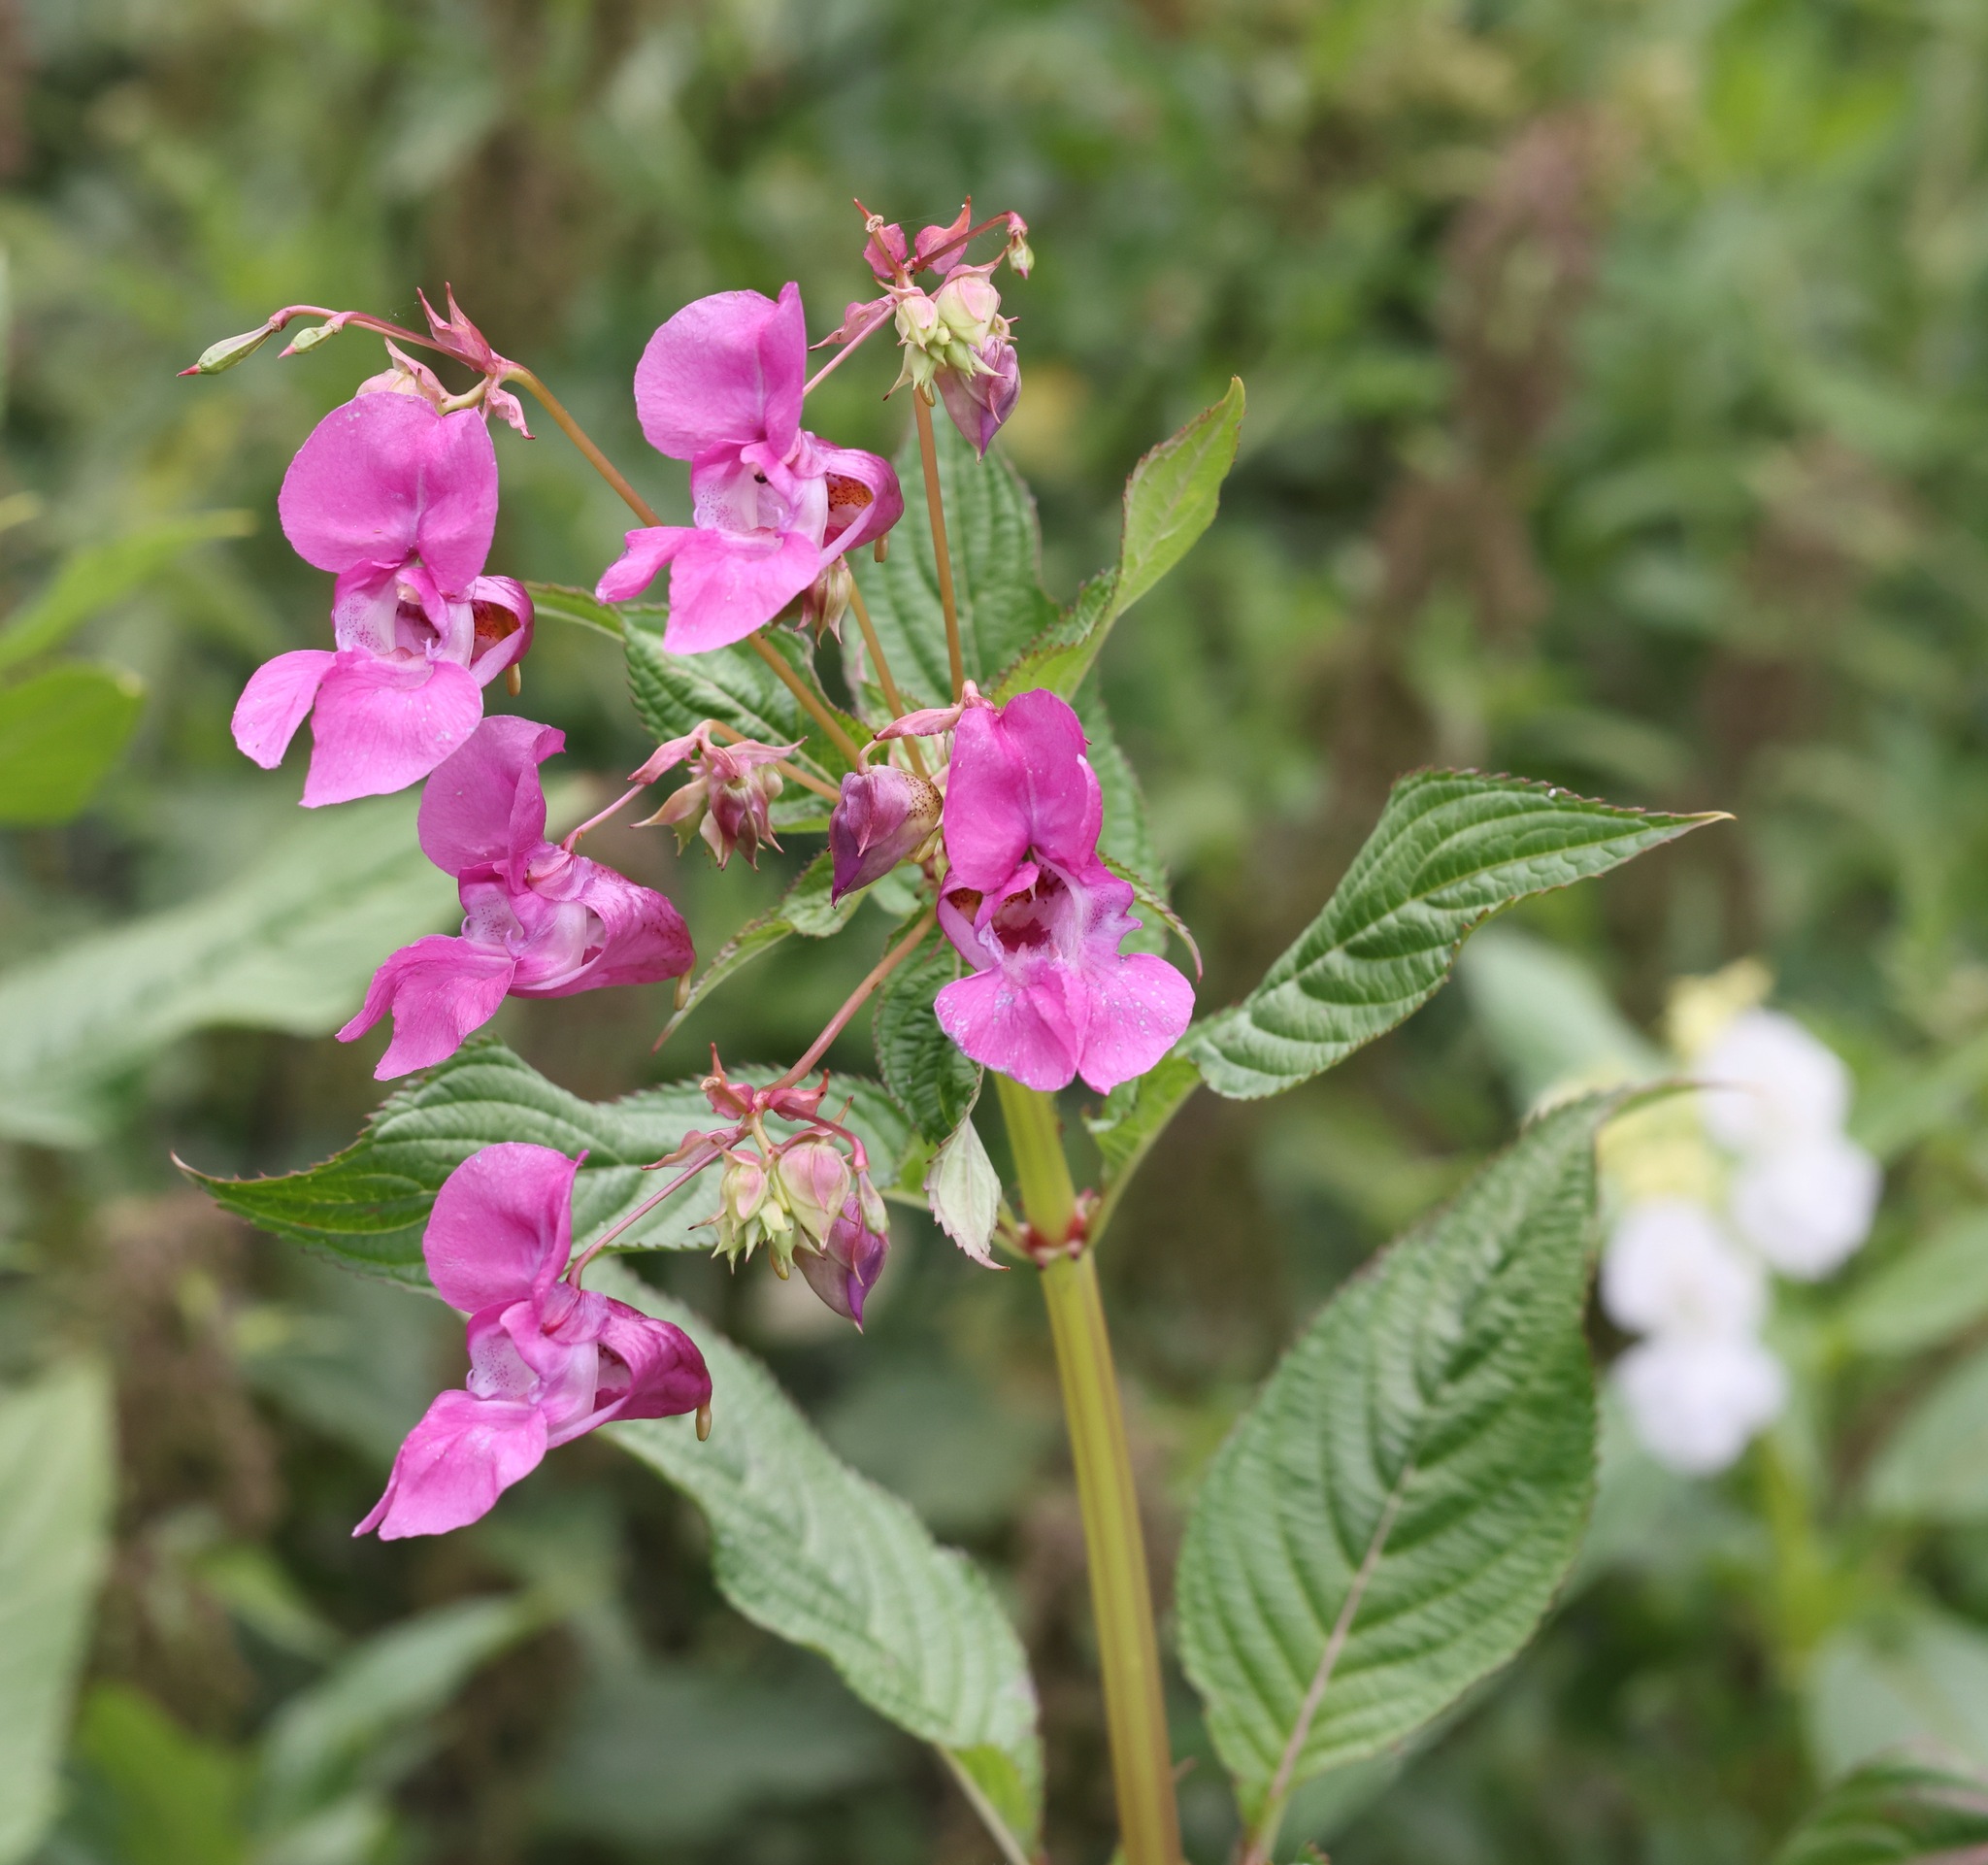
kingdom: Plantae
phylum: Tracheophyta
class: Magnoliopsida
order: Ericales
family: Balsaminaceae
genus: Impatiens
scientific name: Impatiens glandulifera
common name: Himalayan balsam
